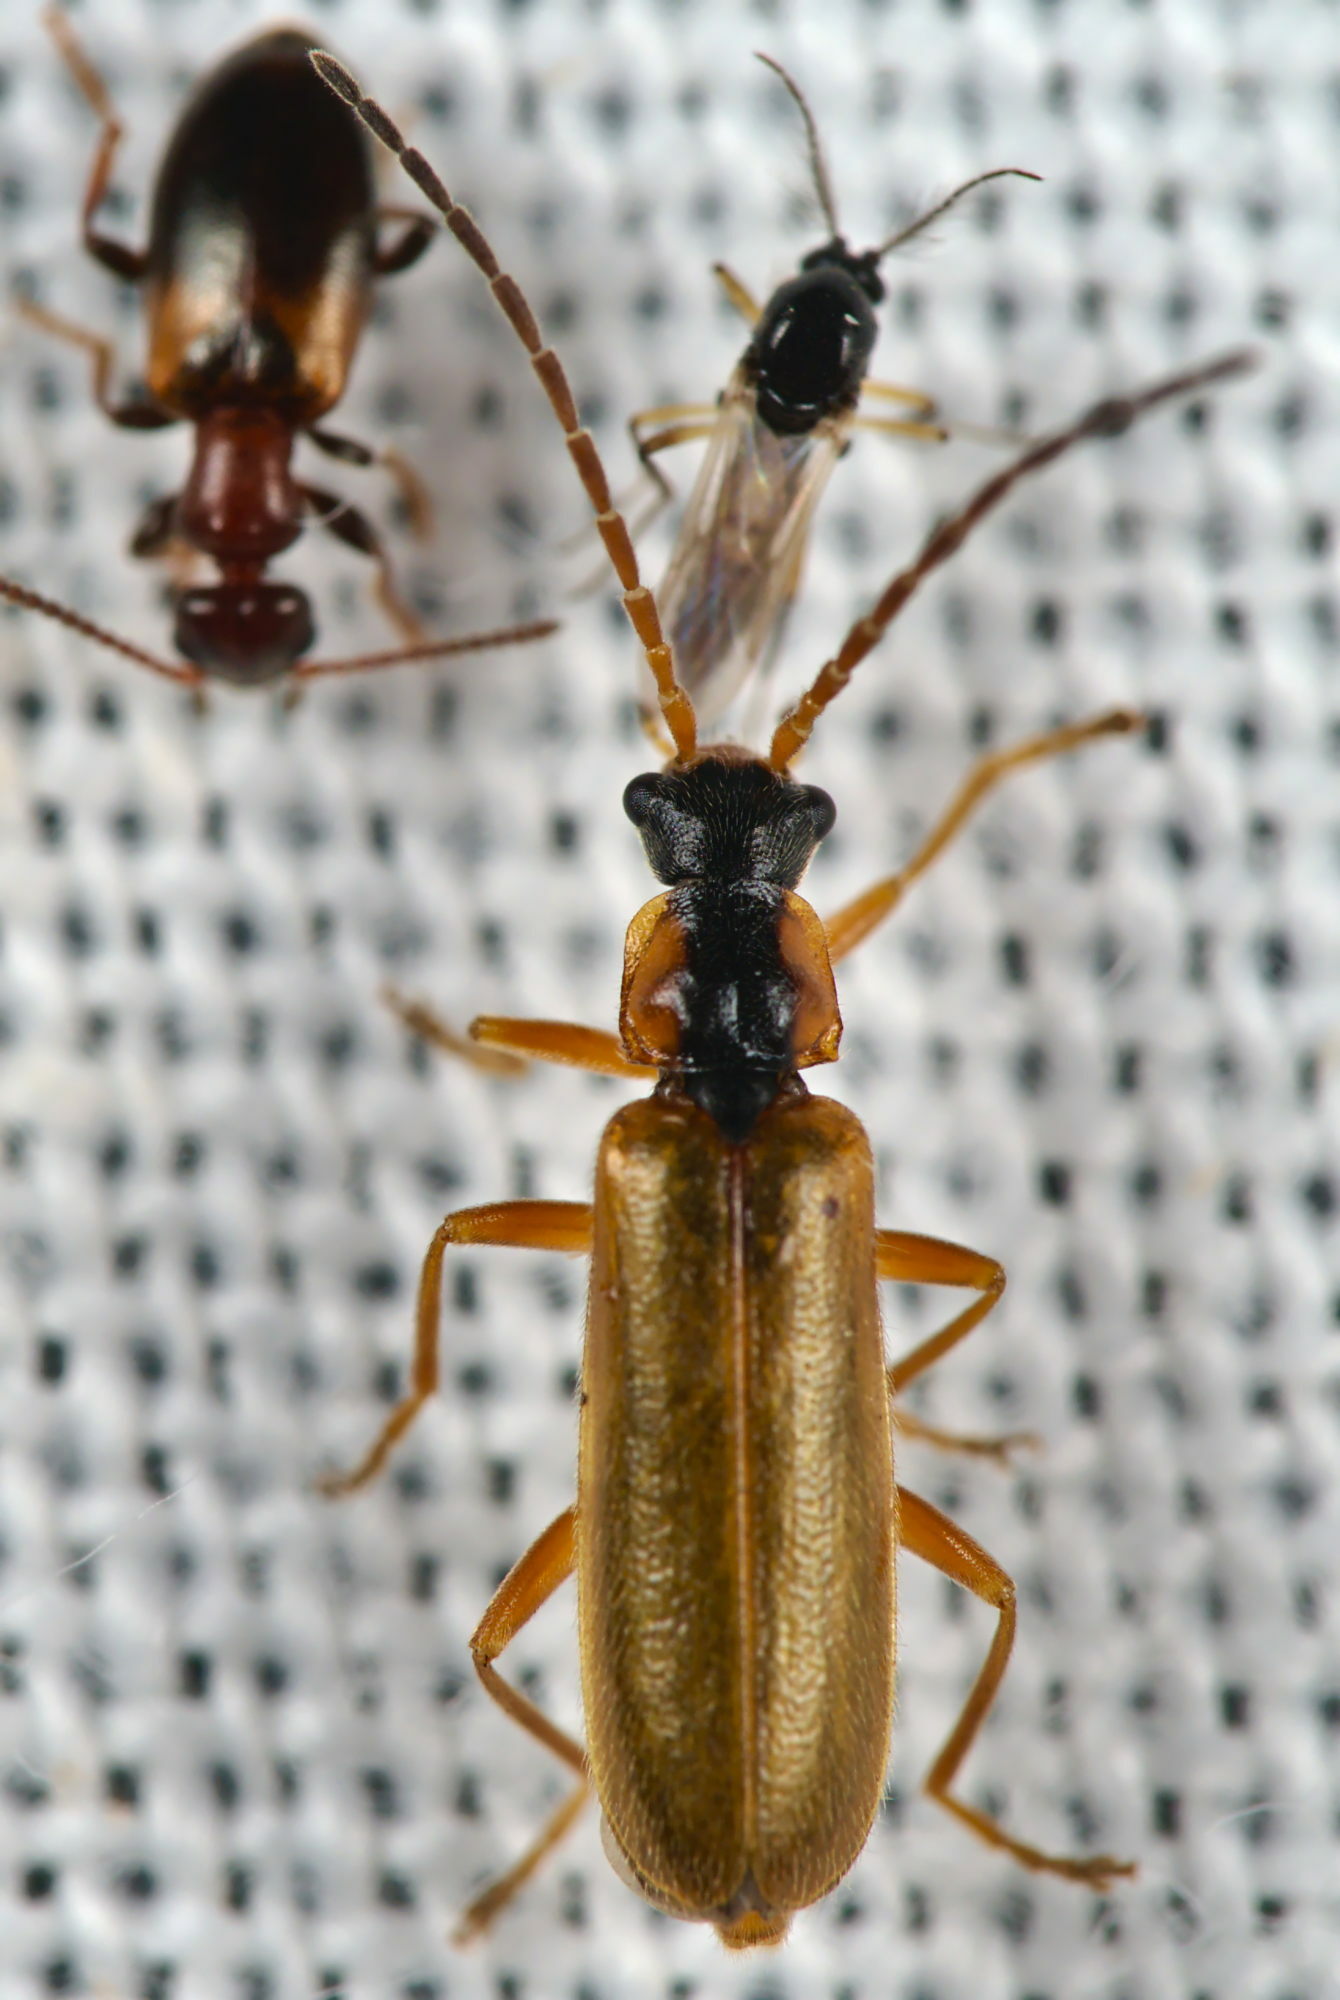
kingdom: Animalia
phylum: Arthropoda
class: Insecta
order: Coleoptera
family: Cantharidae
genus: Rhagonycha
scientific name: Rhagonycha testacea
